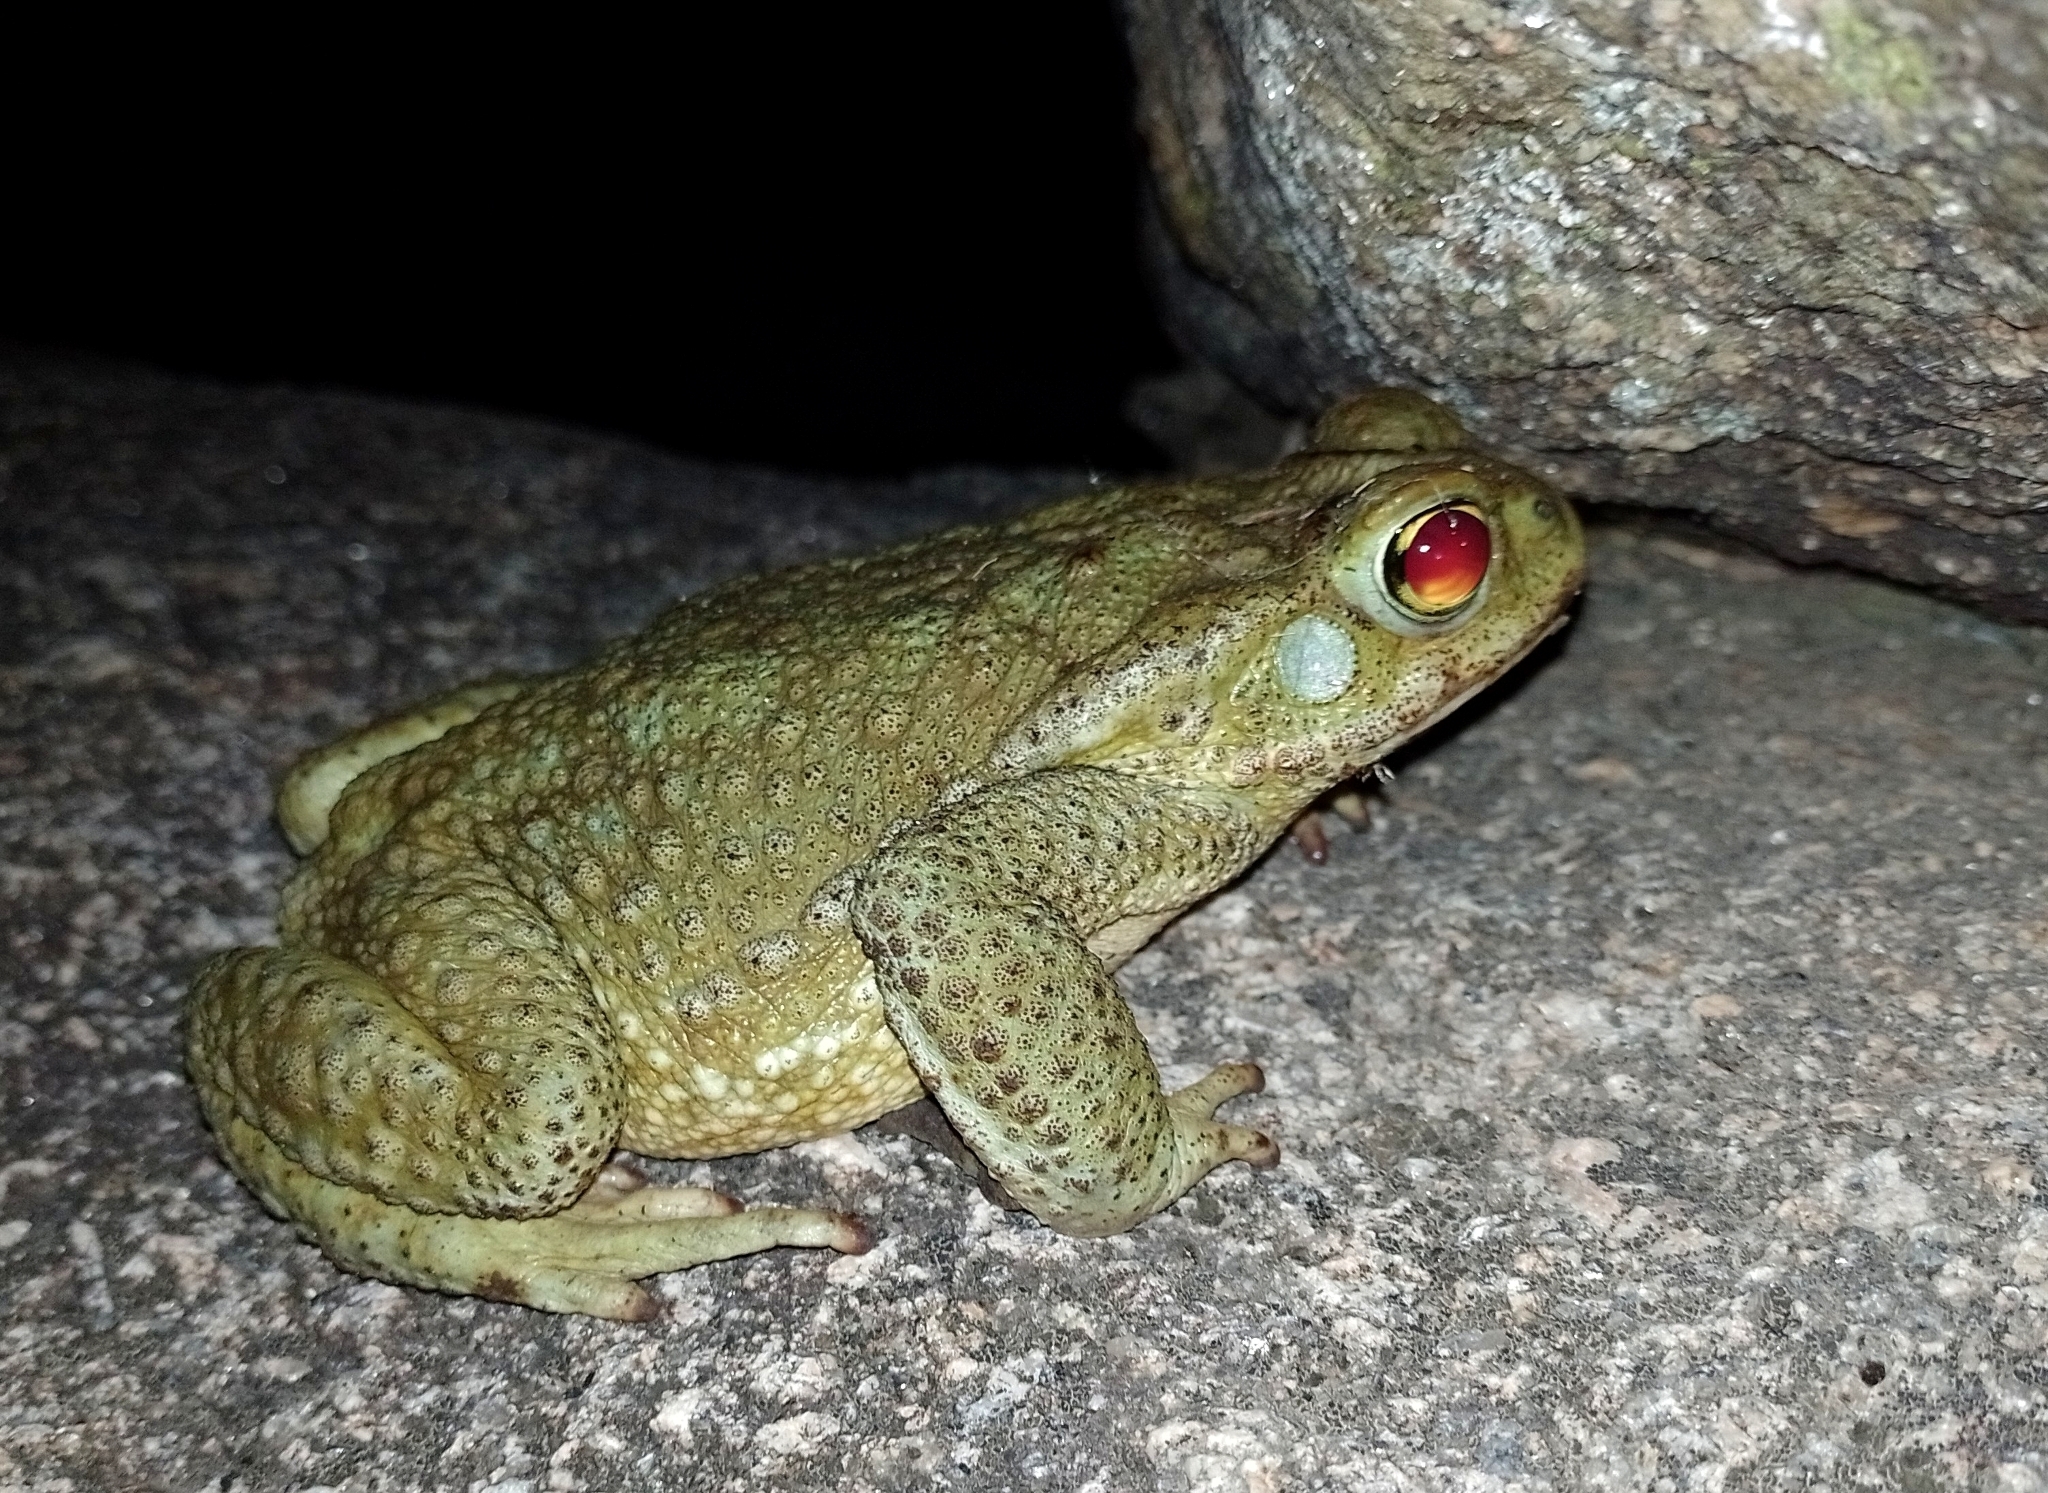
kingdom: Animalia
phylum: Chordata
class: Amphibia
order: Anura
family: Bufonidae
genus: Rhinella
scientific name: Rhinella arenarum
